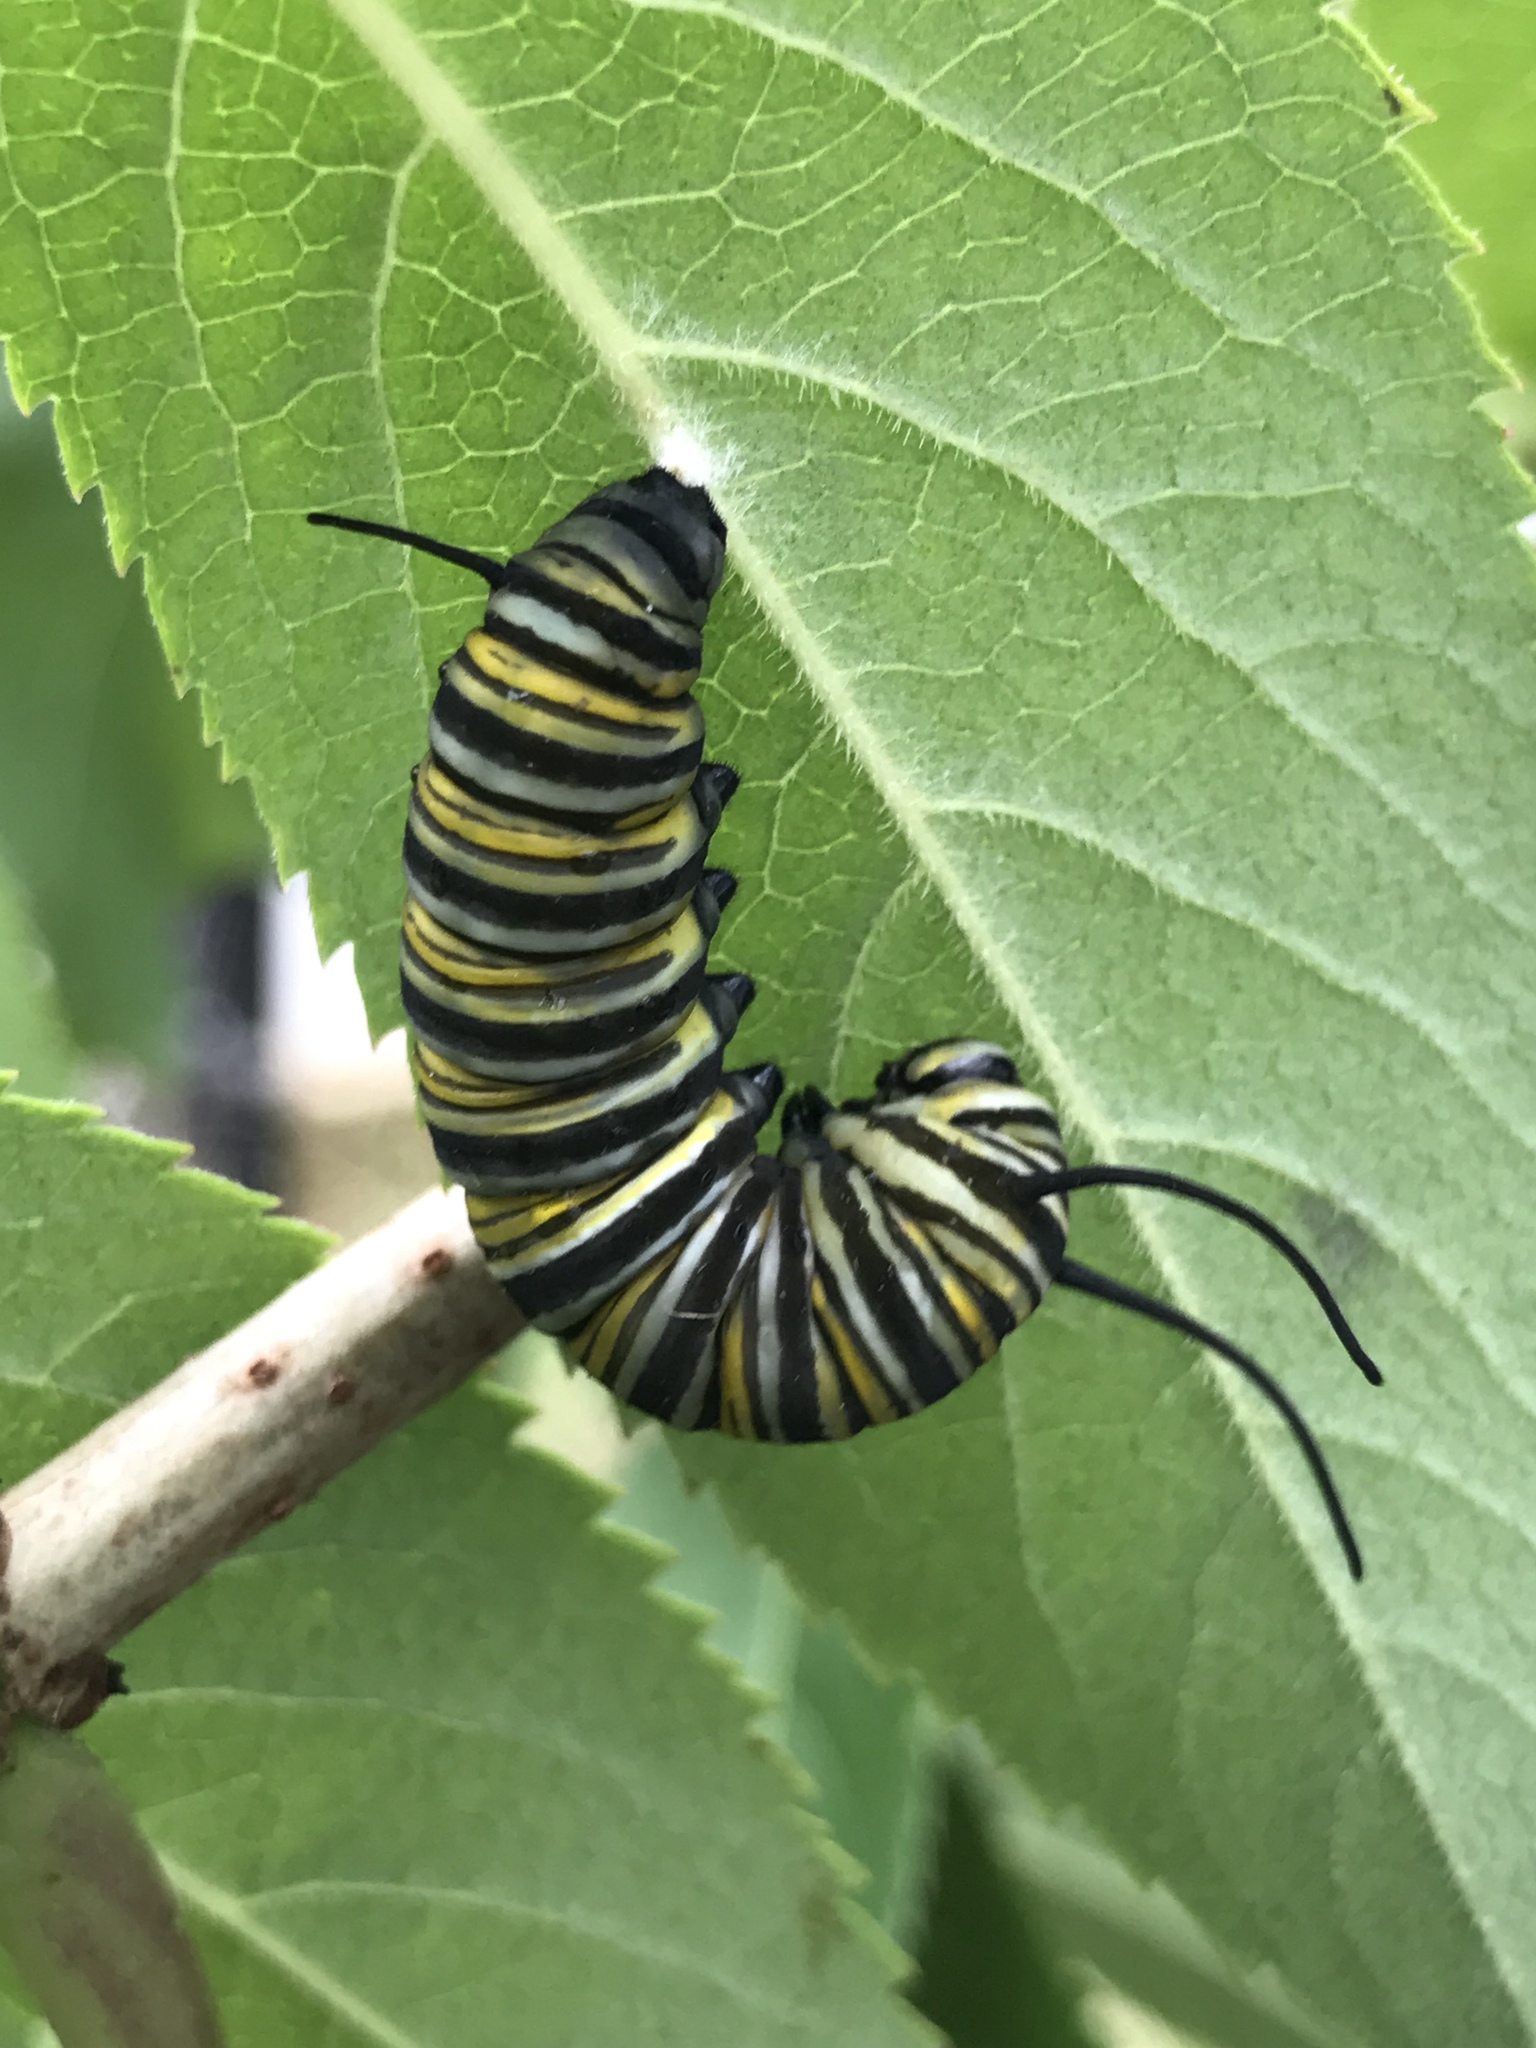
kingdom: Animalia
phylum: Arthropoda
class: Insecta
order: Lepidoptera
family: Nymphalidae
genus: Danaus
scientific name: Danaus plexippus
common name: Monarch
